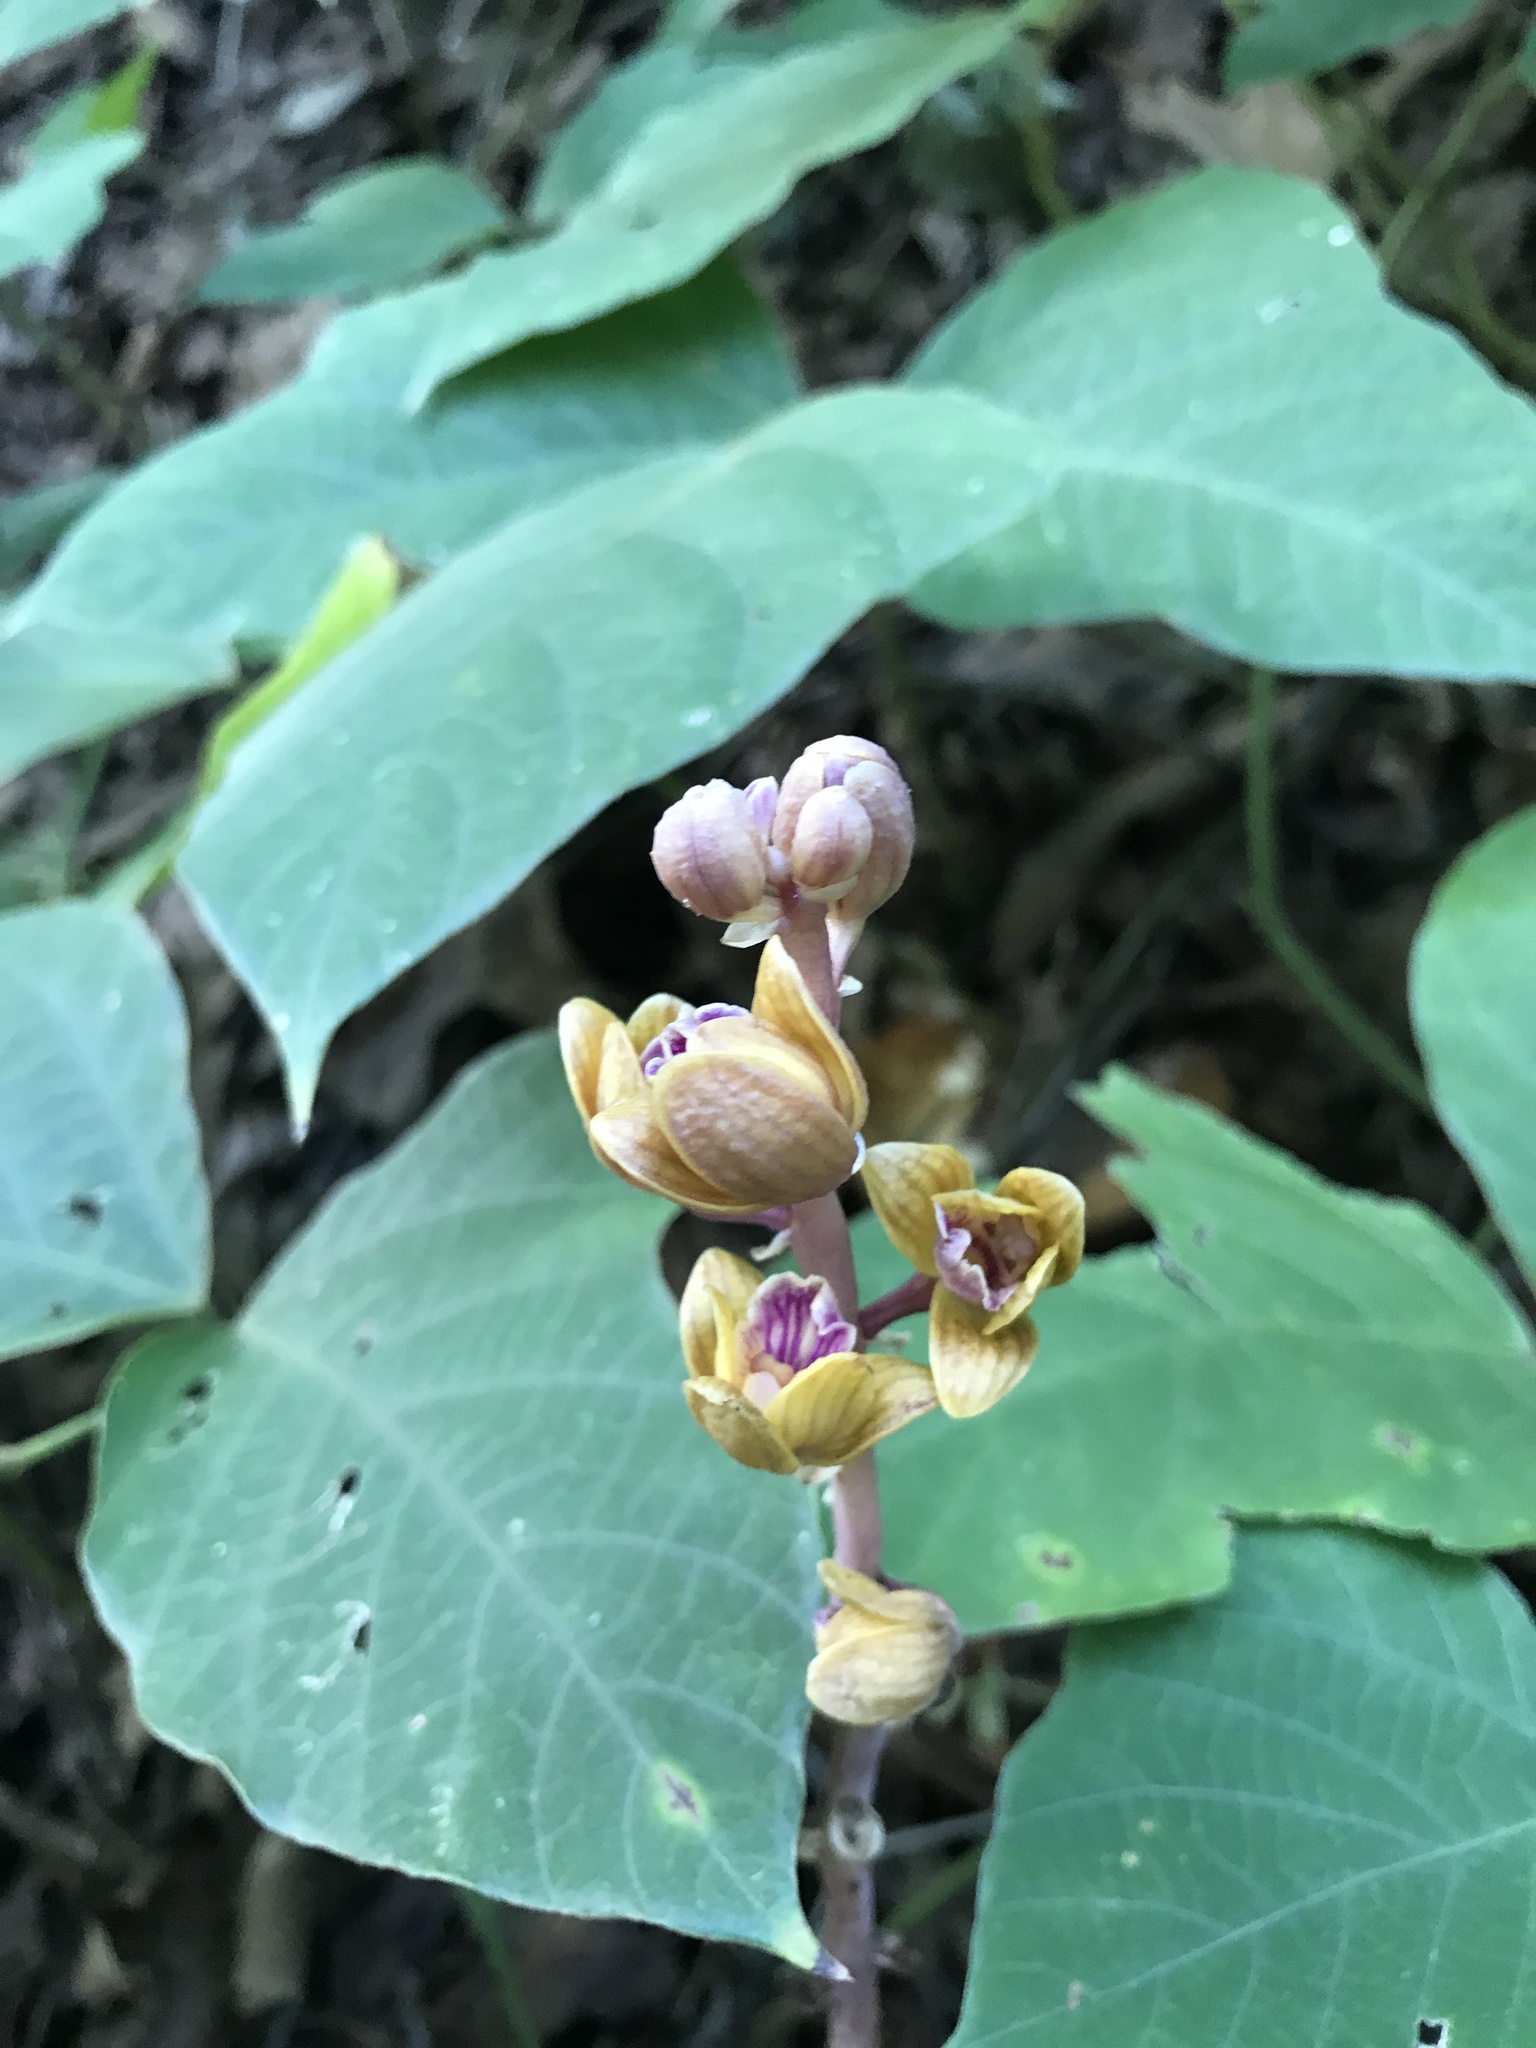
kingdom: Plantae
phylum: Tracheophyta
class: Liliopsida
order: Asparagales
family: Orchidaceae
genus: Bletia
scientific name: Bletia spicata
